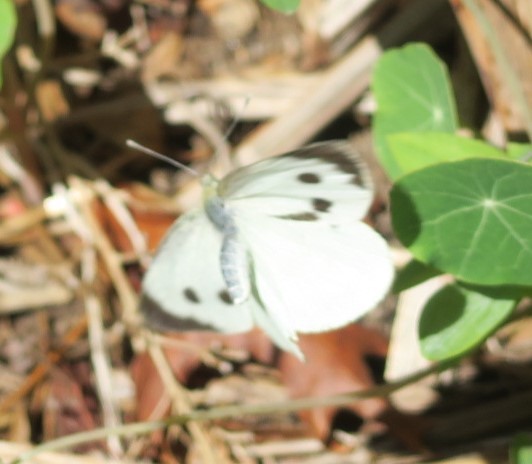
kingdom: Animalia
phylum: Arthropoda
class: Insecta
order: Lepidoptera
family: Pieridae
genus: Pieris
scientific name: Pieris brassicae
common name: Large white
